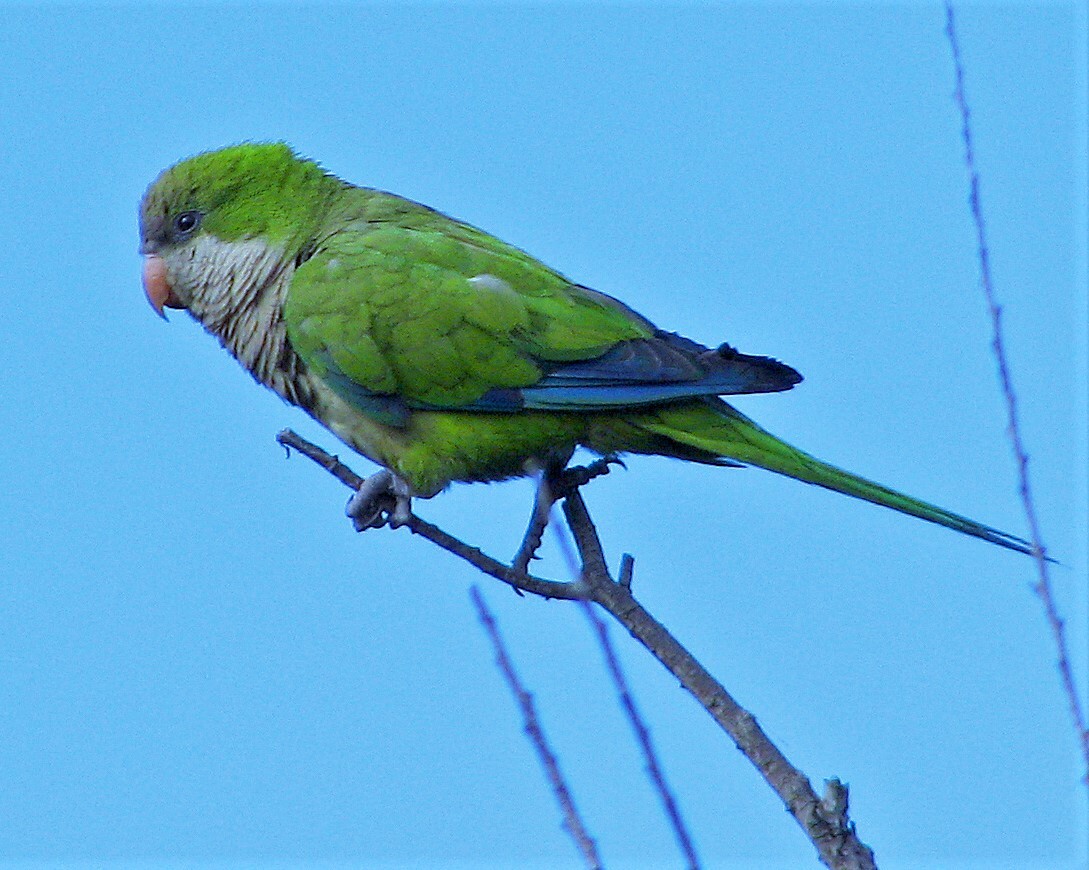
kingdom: Animalia
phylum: Chordata
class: Aves
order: Psittaciformes
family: Psittacidae
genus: Myiopsitta
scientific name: Myiopsitta monachus
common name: Monk parakeet
